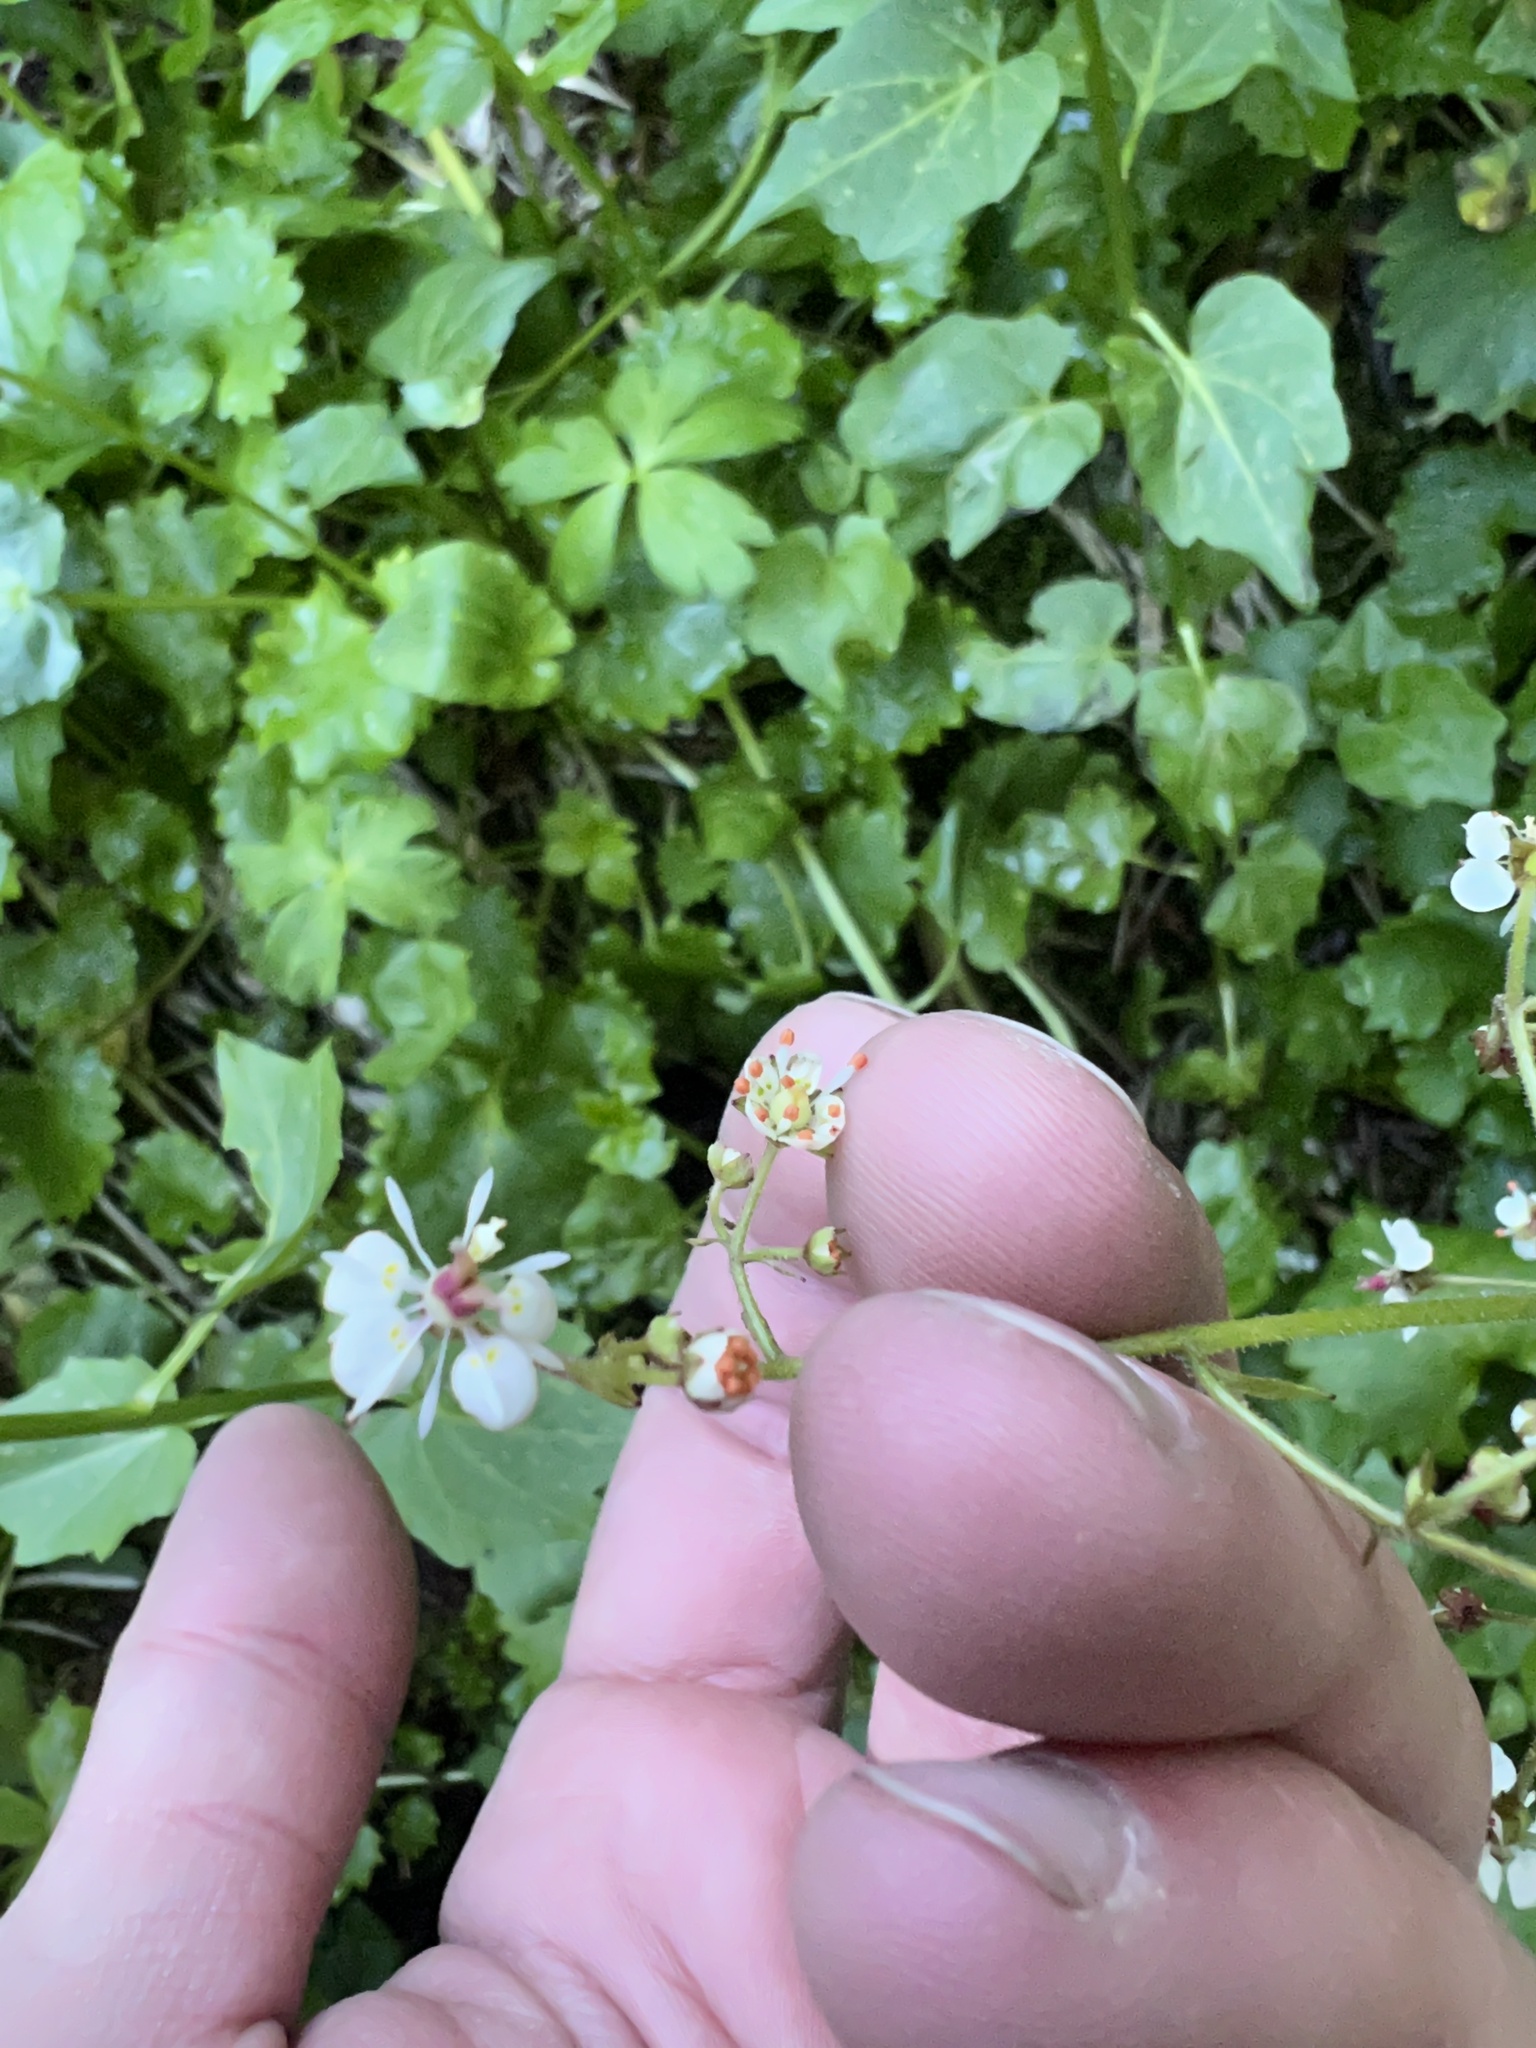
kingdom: Plantae
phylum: Tracheophyta
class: Magnoliopsida
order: Saxifragales
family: Saxifragaceae
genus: Micranthes
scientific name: Micranthes odontoloma
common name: Brook saxifrage
